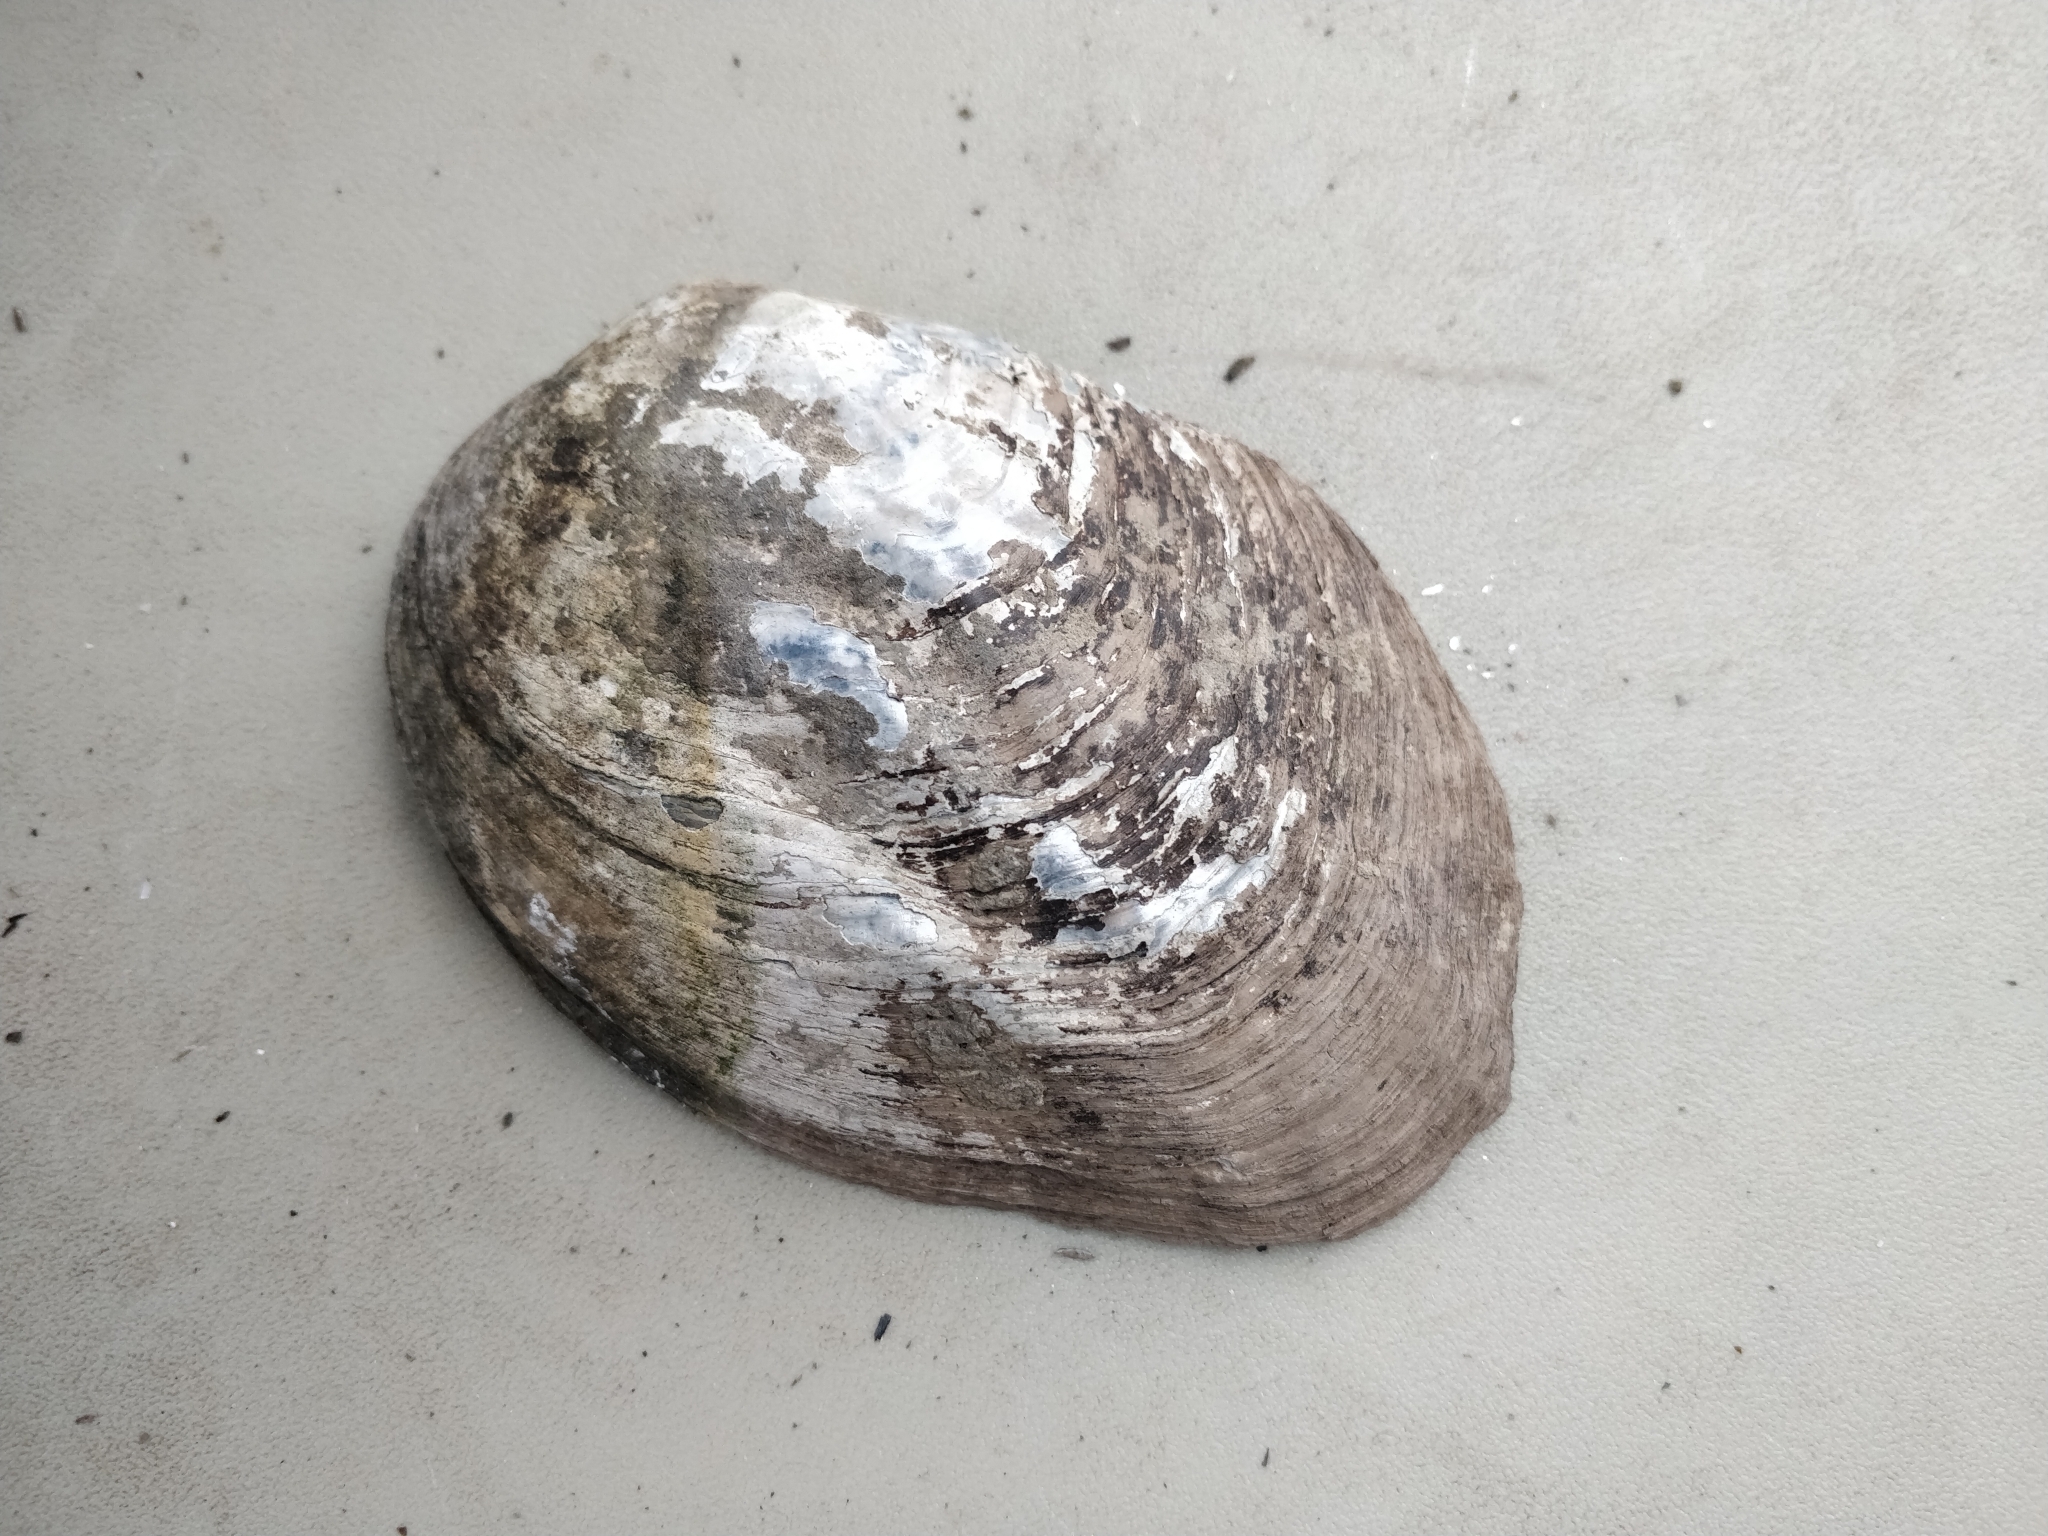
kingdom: Animalia
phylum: Mollusca
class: Bivalvia
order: Unionida
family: Unionidae
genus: Amblema
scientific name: Amblema plicata
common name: Threeridge
